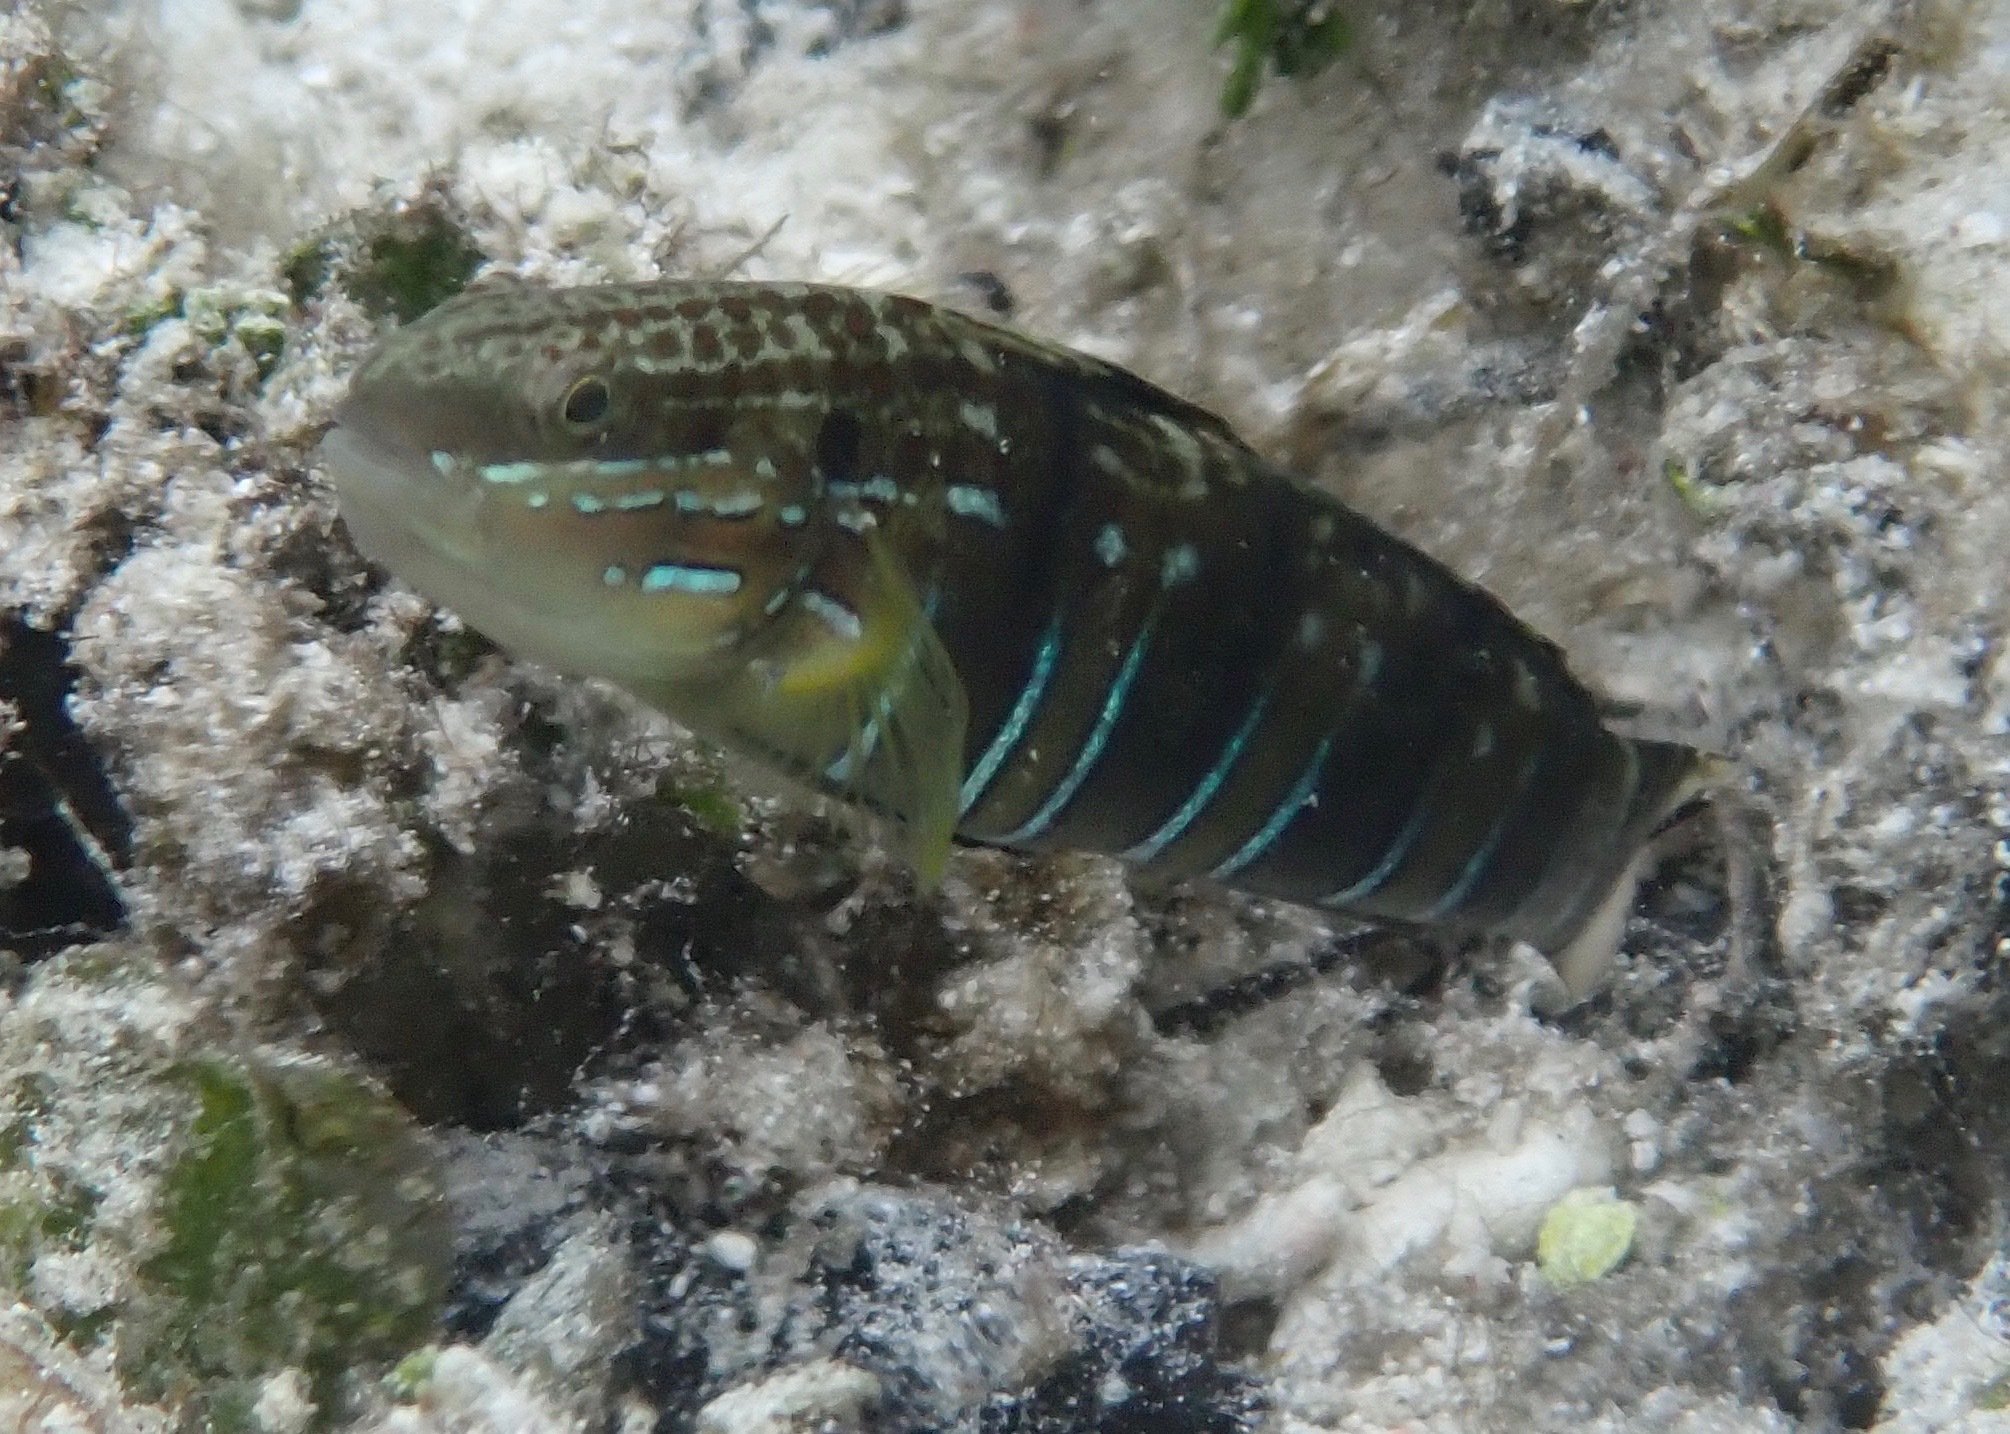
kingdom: Animalia
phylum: Chordata
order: Perciformes
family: Gobiidae
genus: Amblygobius
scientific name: Amblygobius phalaena
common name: Banded goby
